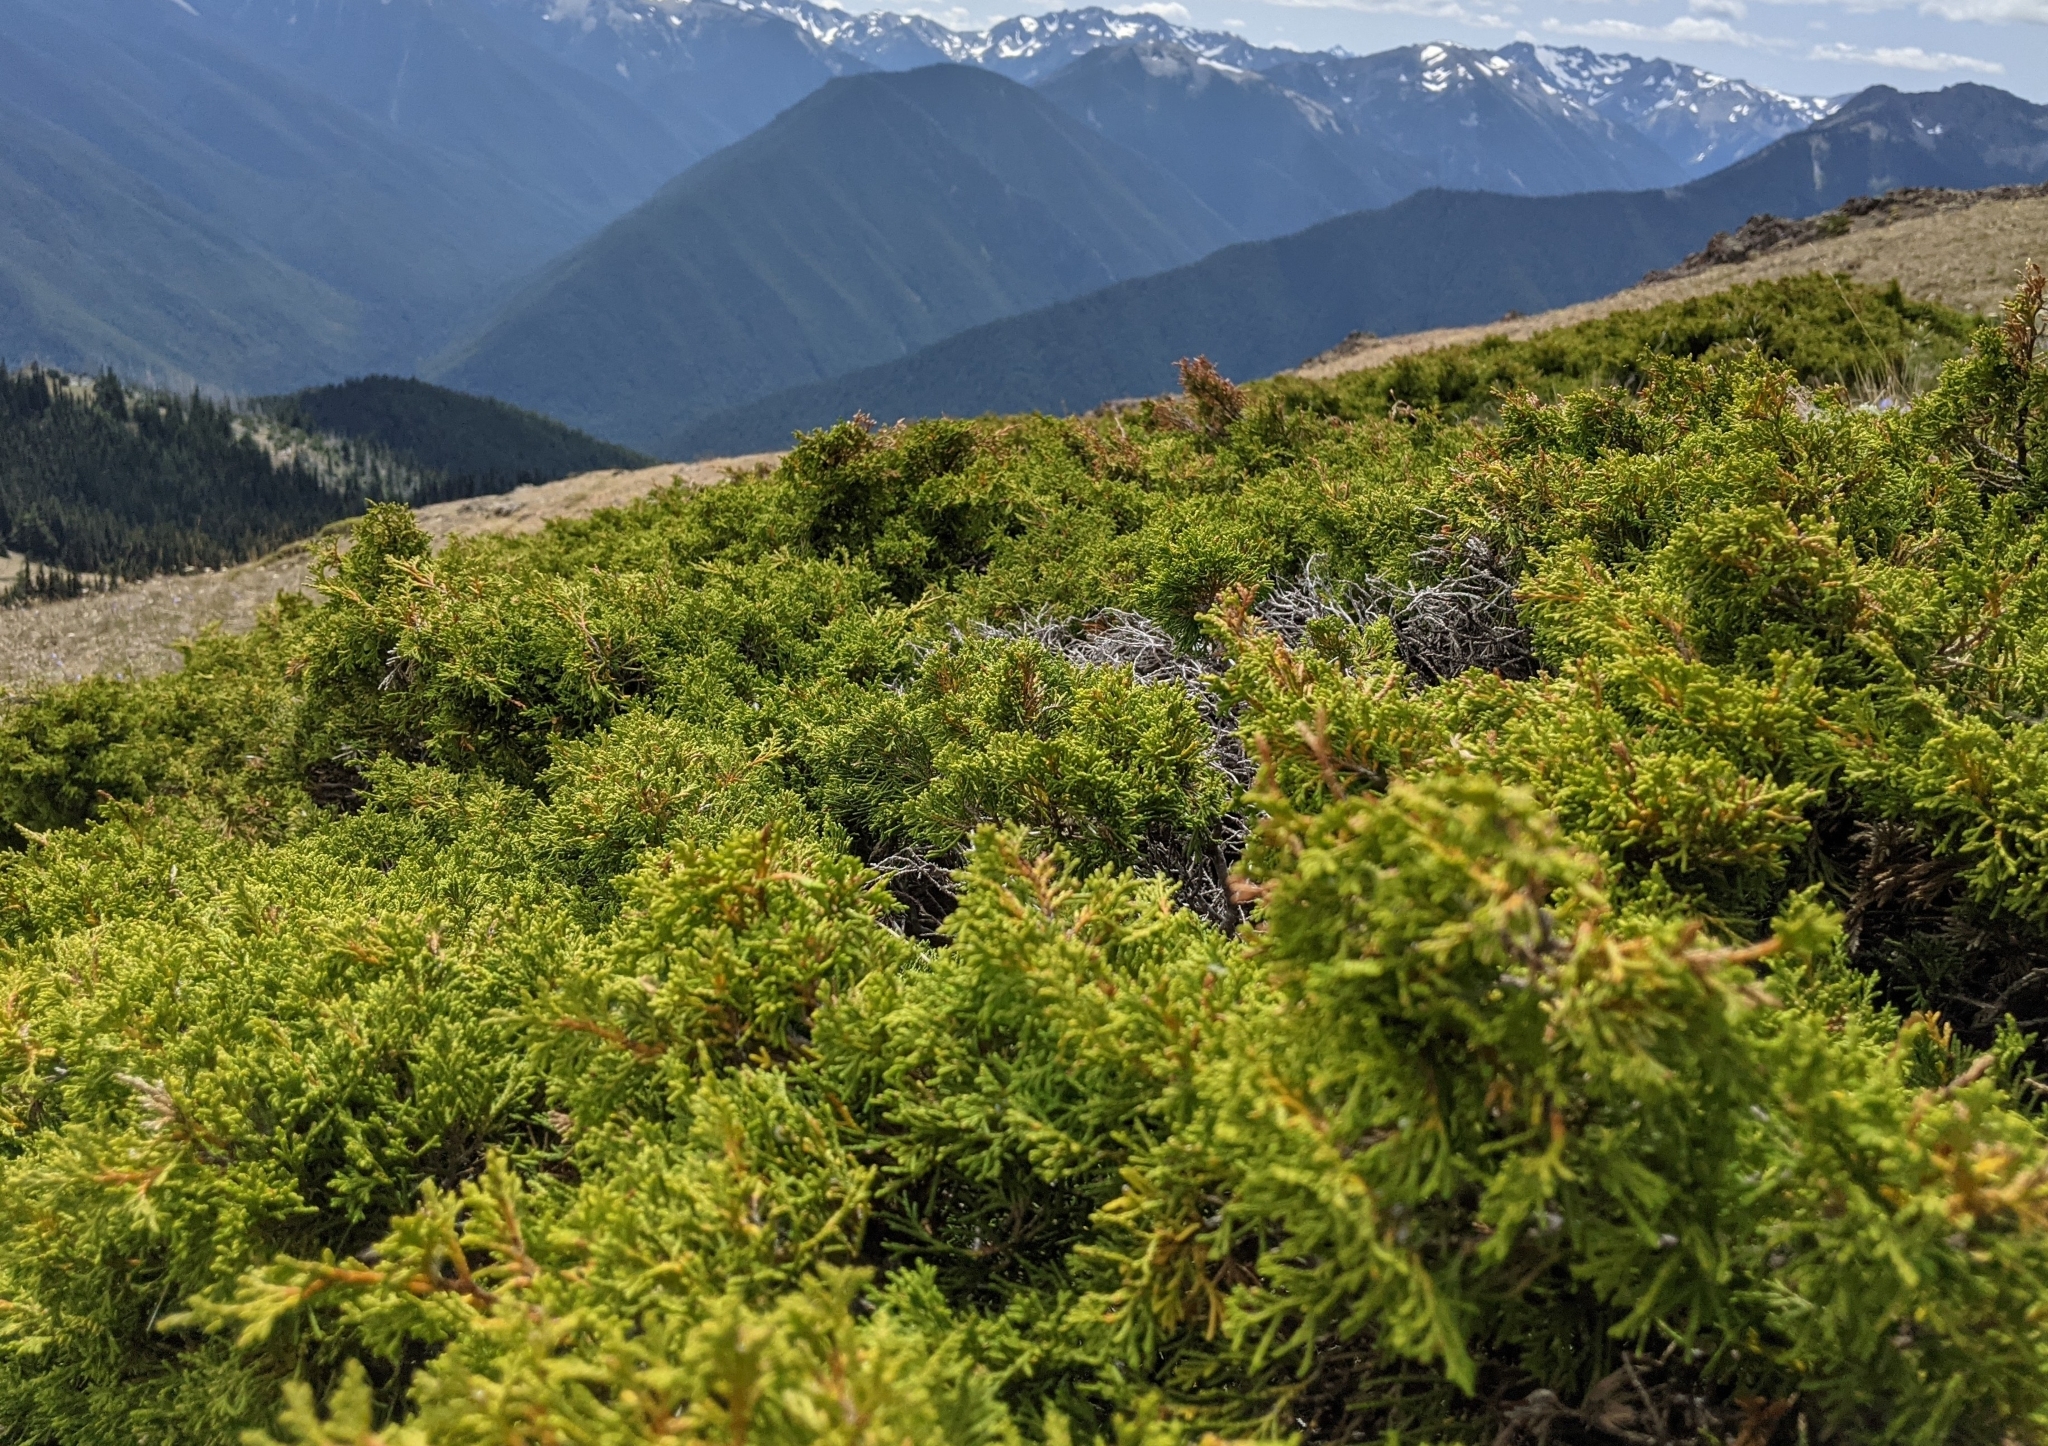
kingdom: Plantae
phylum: Tracheophyta
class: Pinopsida
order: Pinales
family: Cupressaceae
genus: Juniperus
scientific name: Juniperus scopulorum
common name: Rocky mountain juniper
